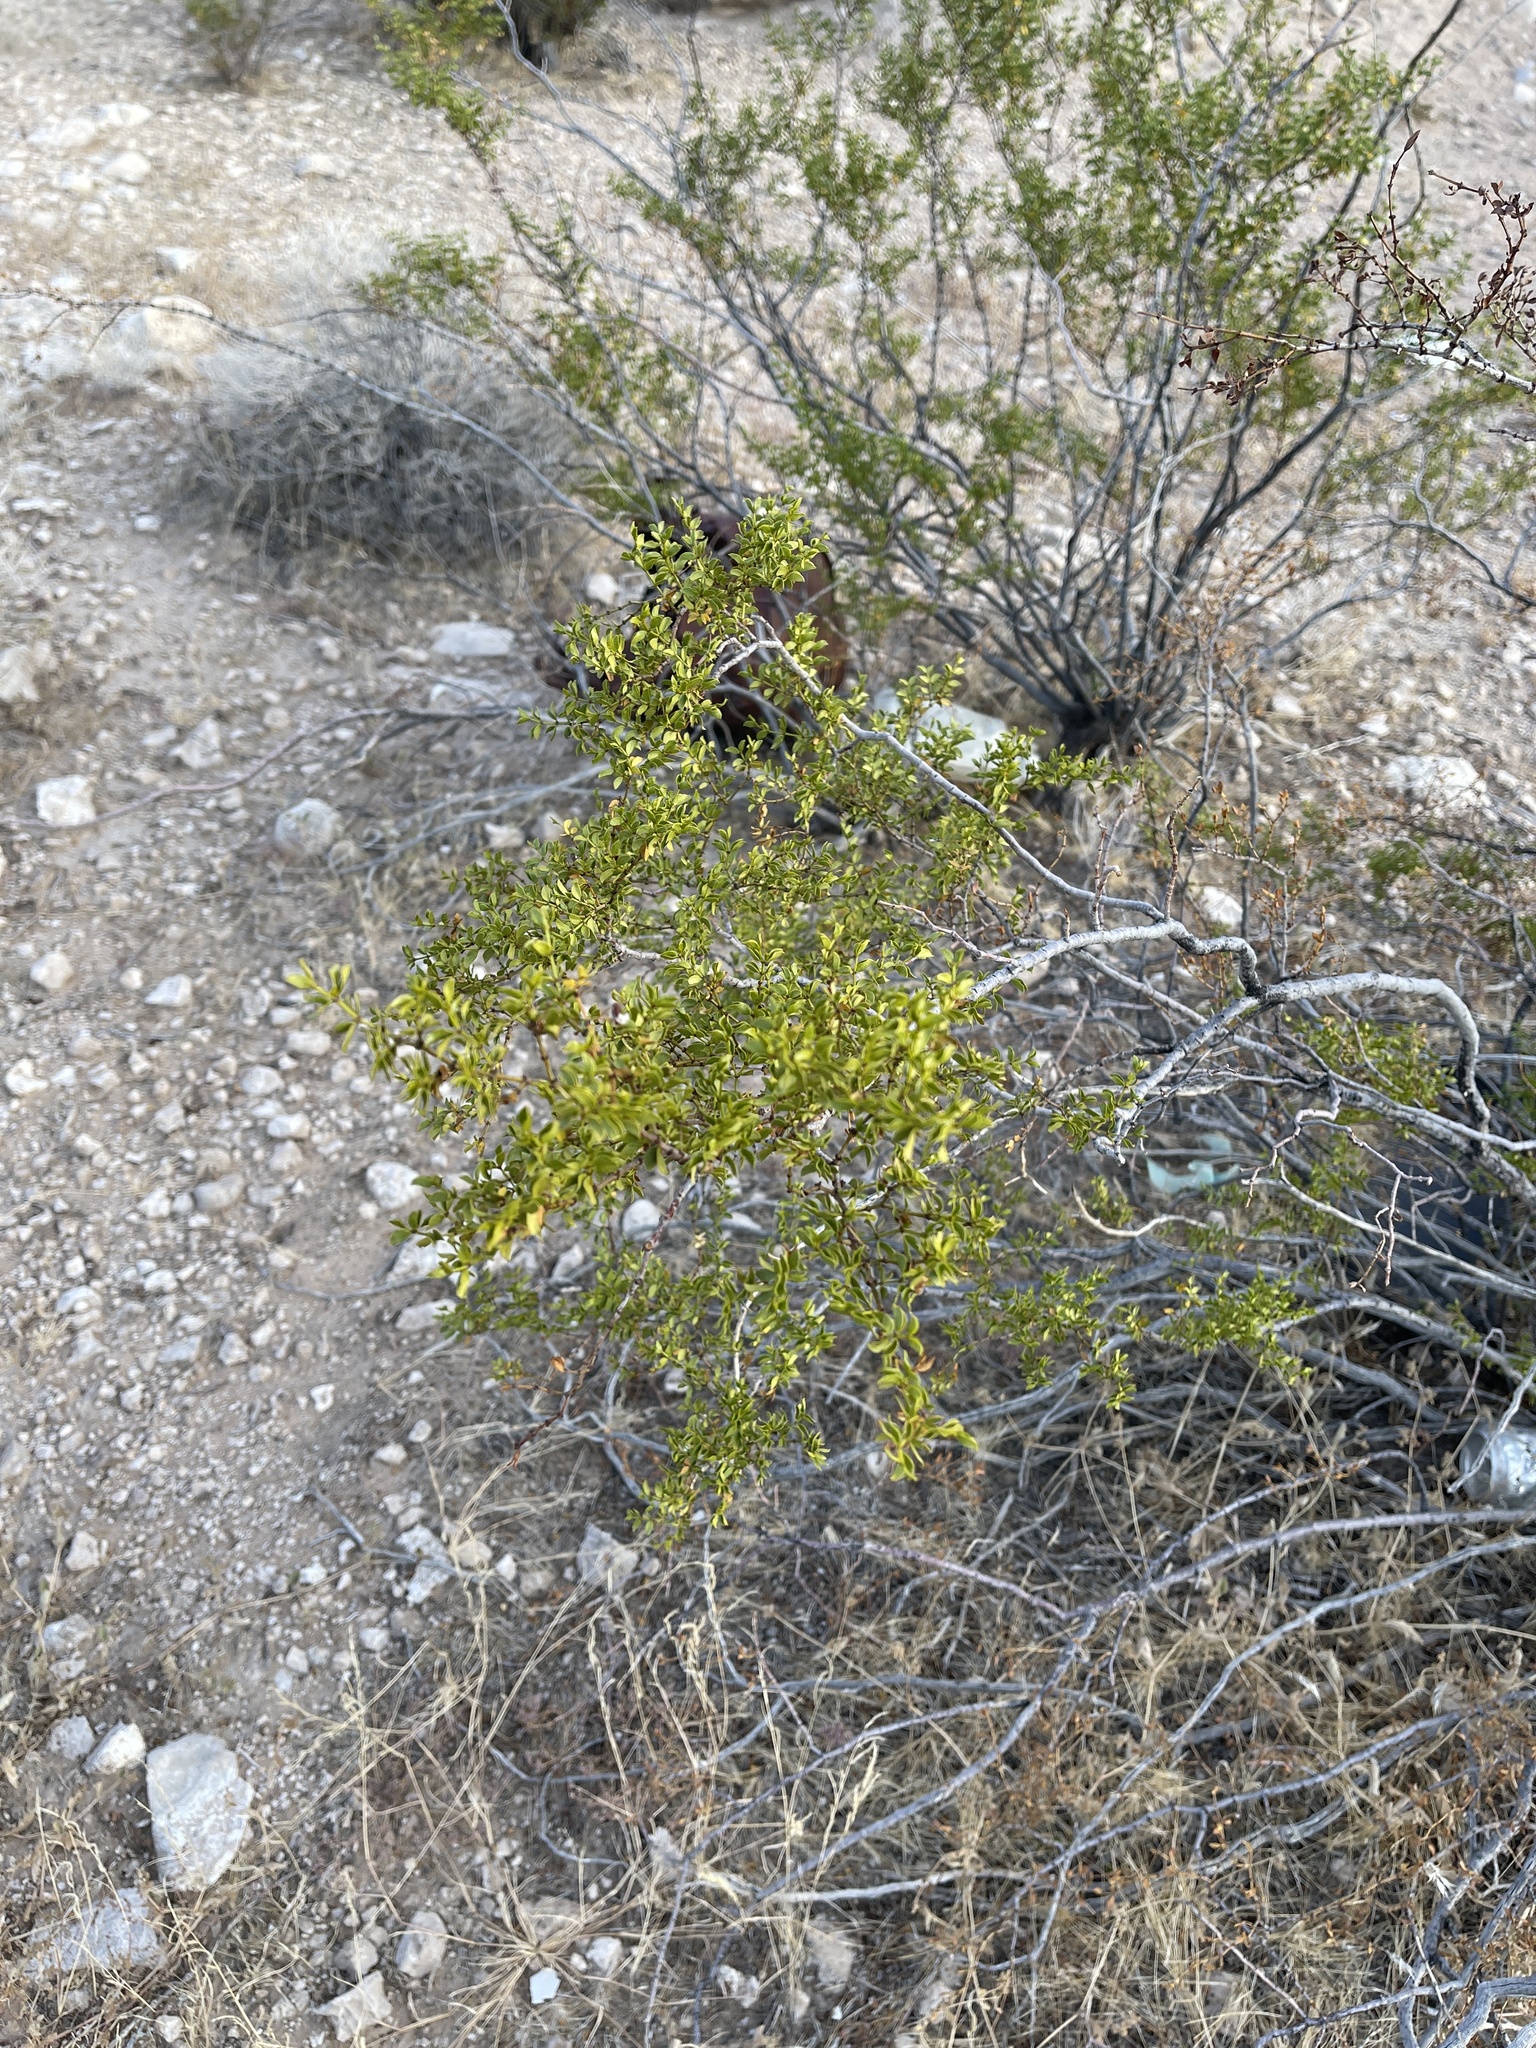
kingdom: Plantae
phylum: Tracheophyta
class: Magnoliopsida
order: Zygophyllales
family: Zygophyllaceae
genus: Larrea
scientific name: Larrea tridentata
